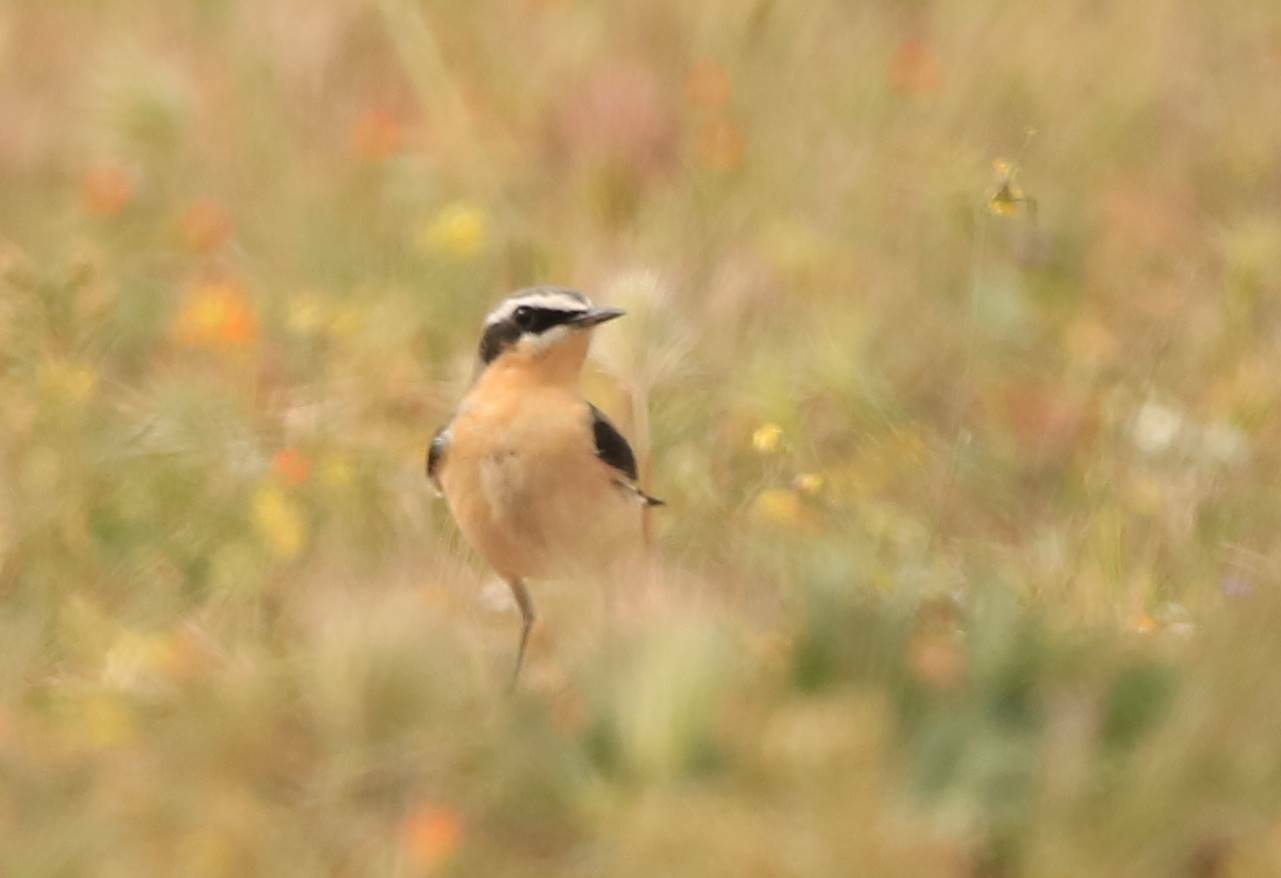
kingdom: Animalia
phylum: Chordata
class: Aves
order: Passeriformes
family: Muscicapidae
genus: Oenanthe
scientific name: Oenanthe oenanthe
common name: Northern wheatear
